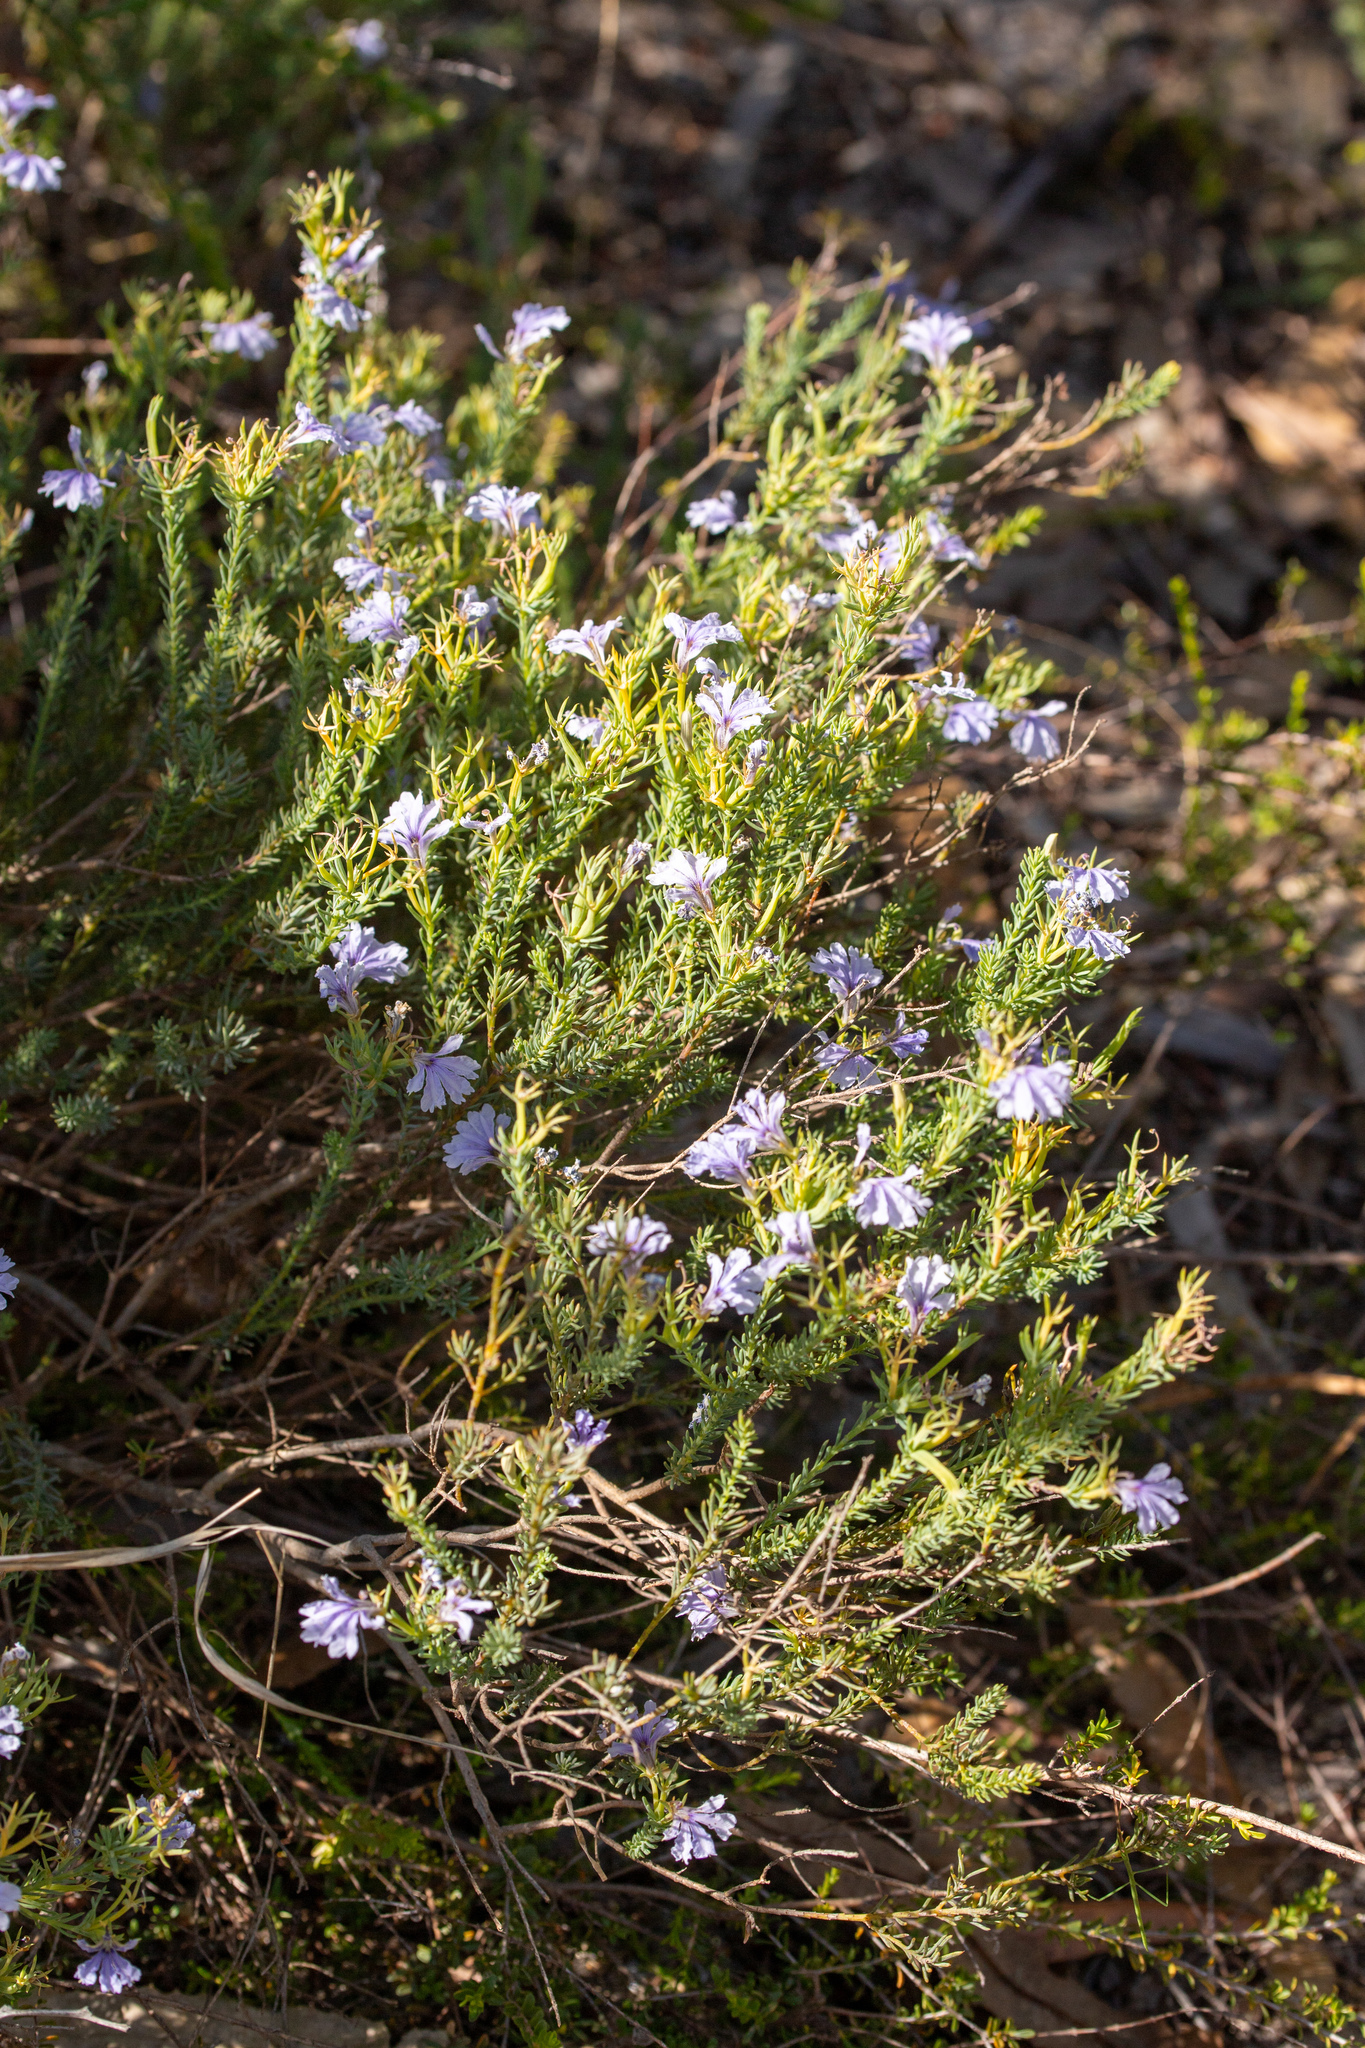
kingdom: Plantae
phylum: Tracheophyta
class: Magnoliopsida
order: Asterales
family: Goodeniaceae
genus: Lechenaultia
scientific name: Lechenaultia floribunda
